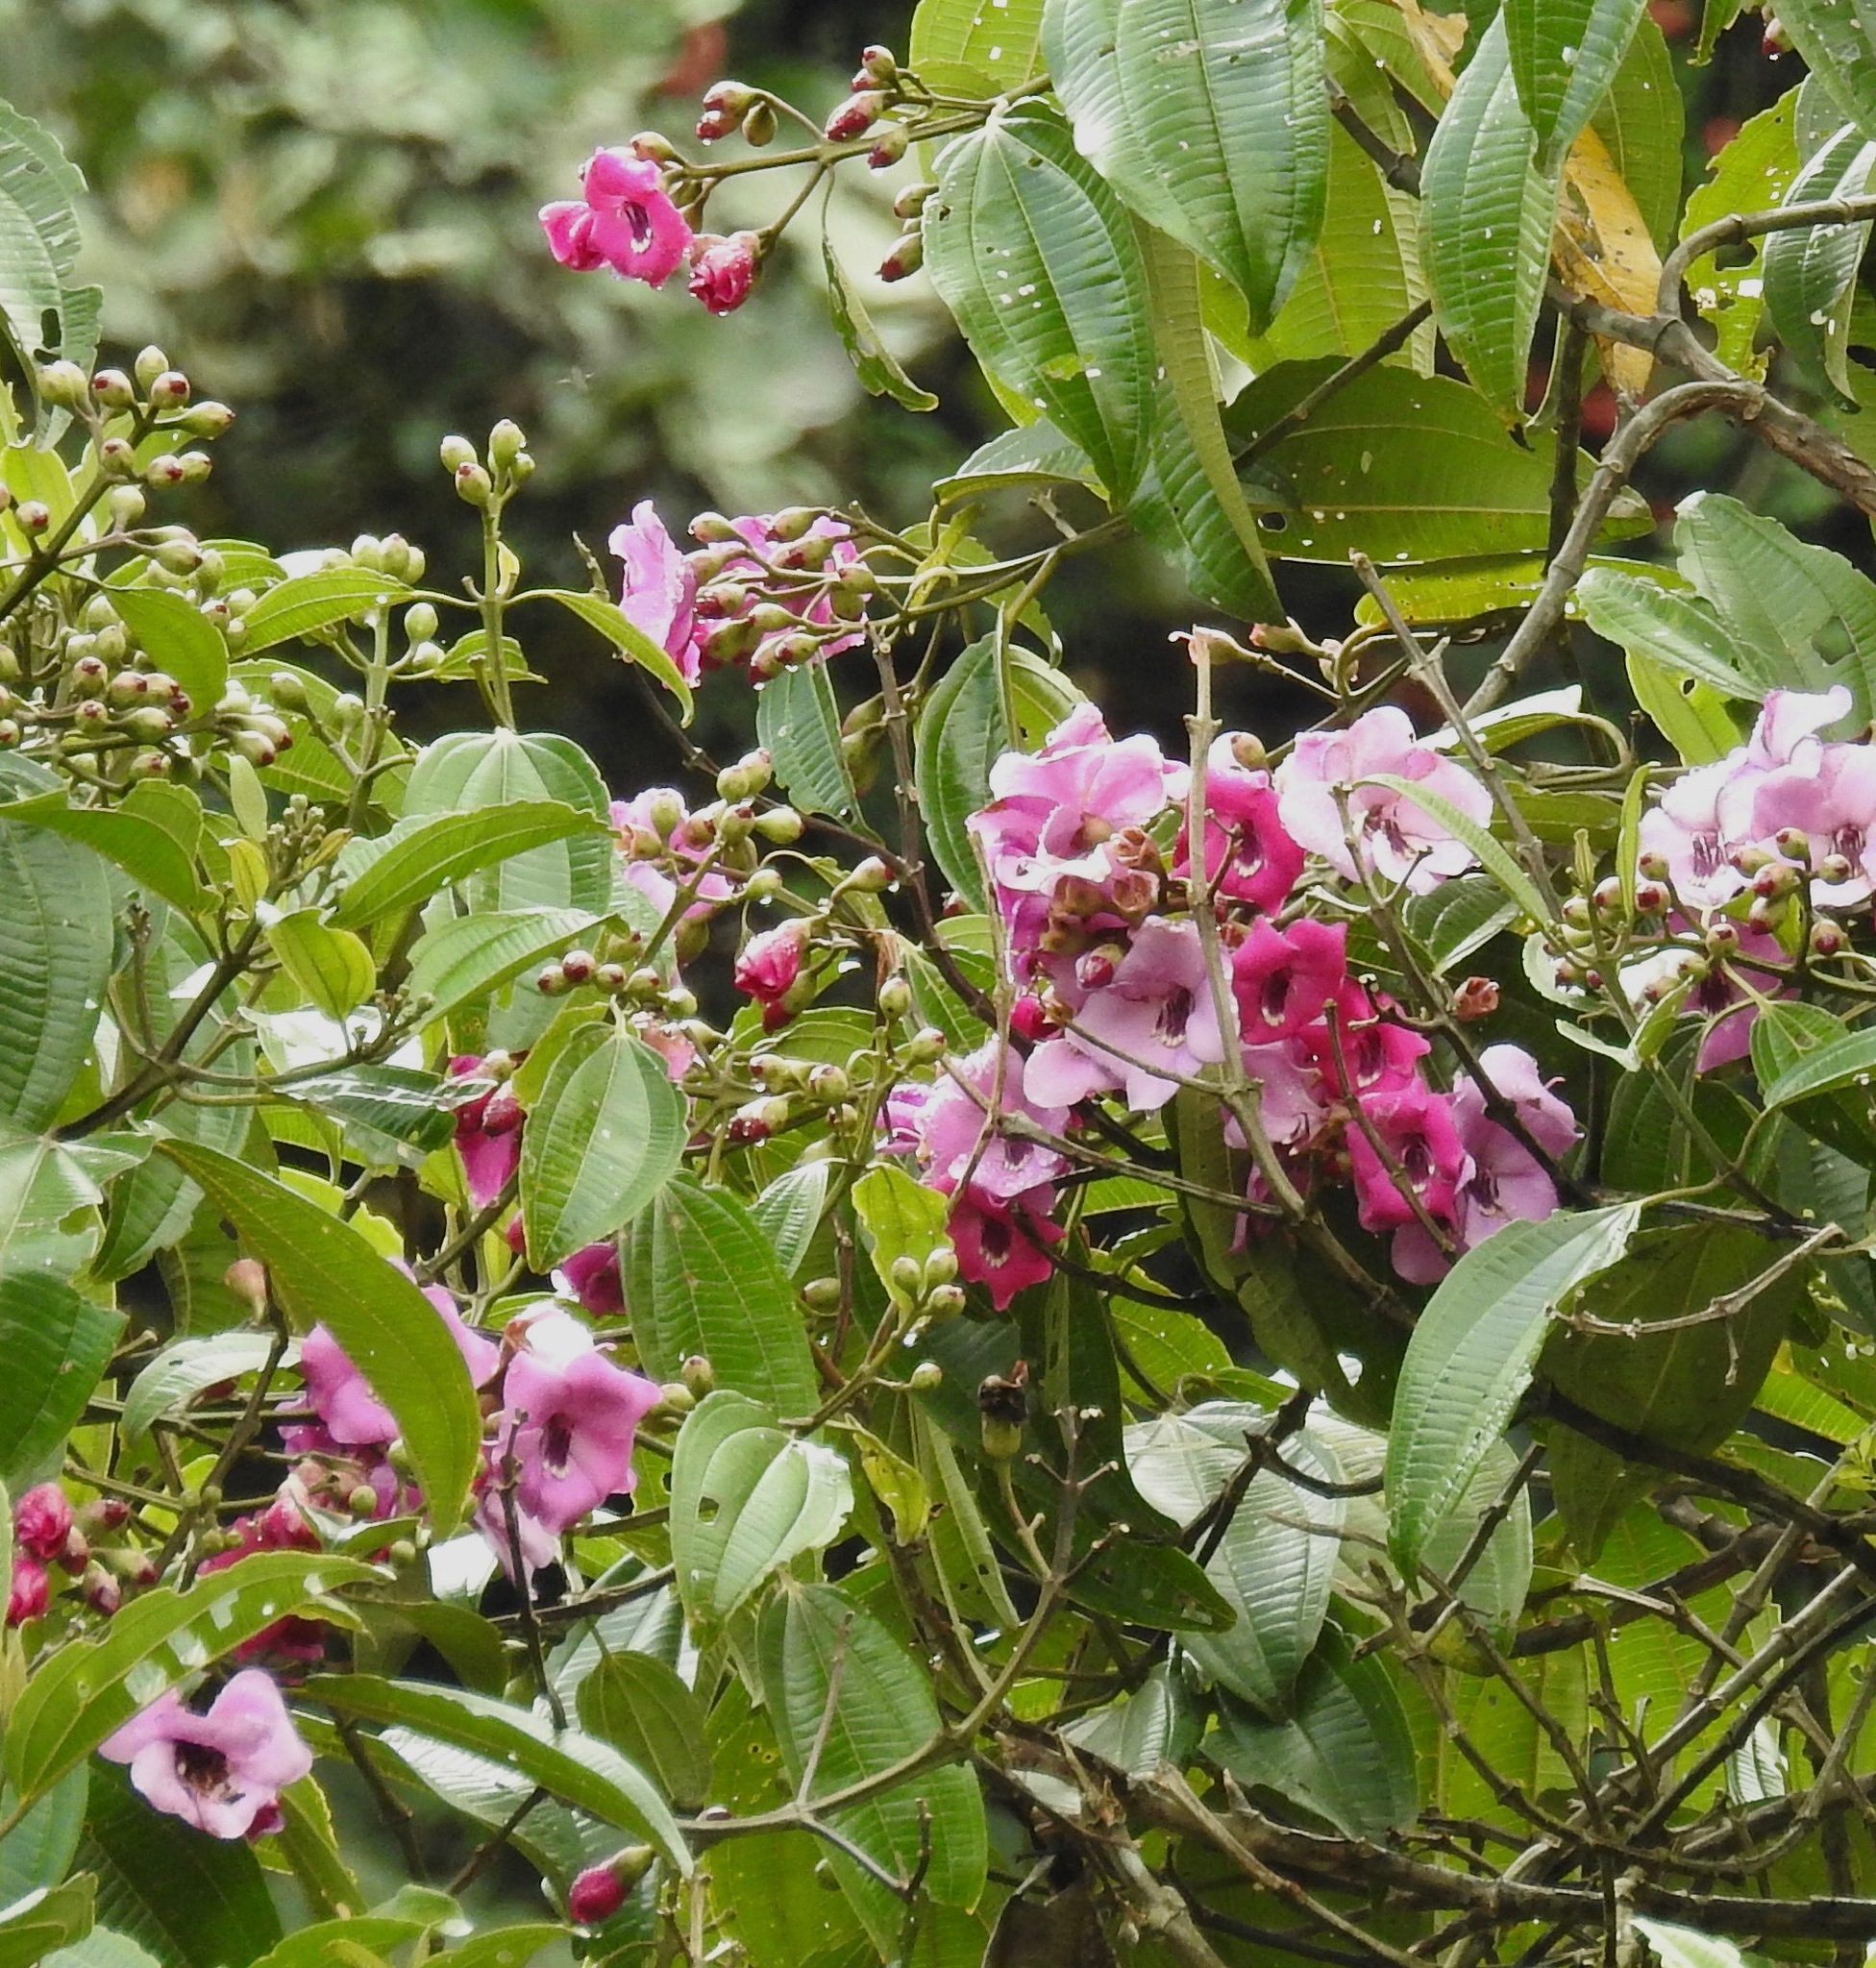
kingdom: Plantae
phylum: Tracheophyta
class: Magnoliopsida
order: Myrtales
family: Melastomataceae
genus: Meriania
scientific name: Meriania maxima
